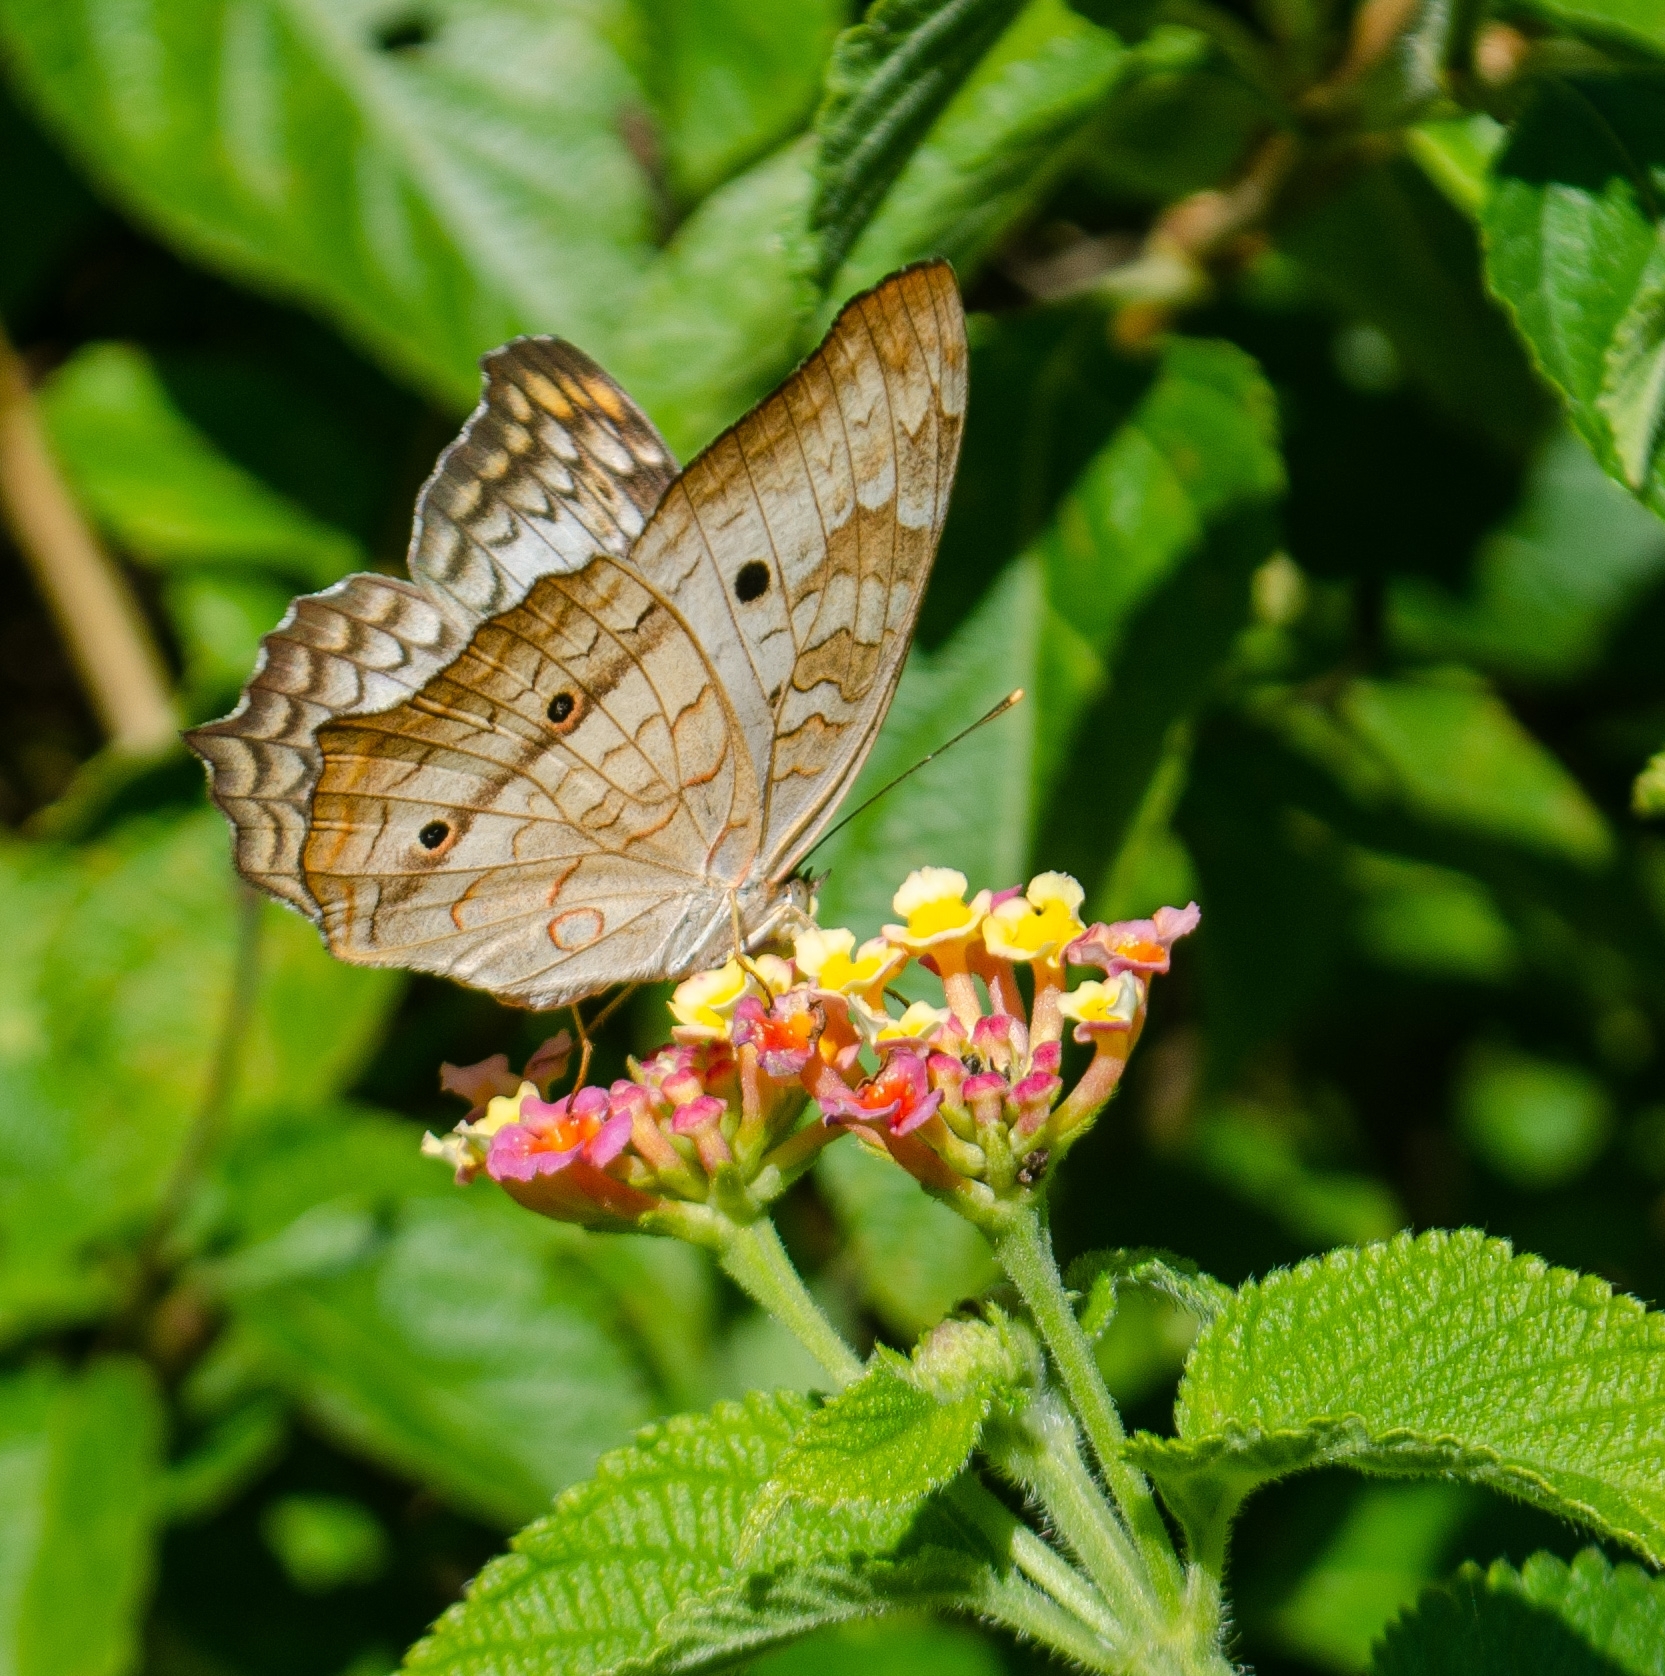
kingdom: Animalia
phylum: Arthropoda
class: Insecta
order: Lepidoptera
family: Nymphalidae
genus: Anartia
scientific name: Anartia jatrophae
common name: White peacock
